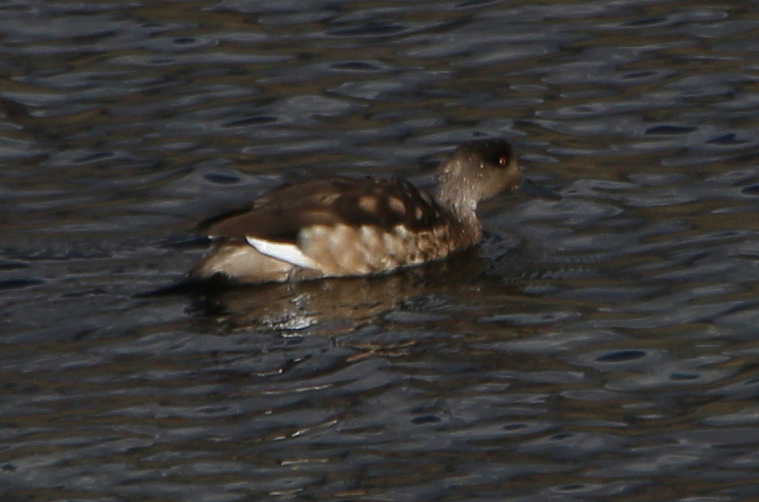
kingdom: Animalia
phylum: Chordata
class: Aves
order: Anseriformes
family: Anatidae
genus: Lophonetta
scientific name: Lophonetta specularioides
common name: Crested duck
